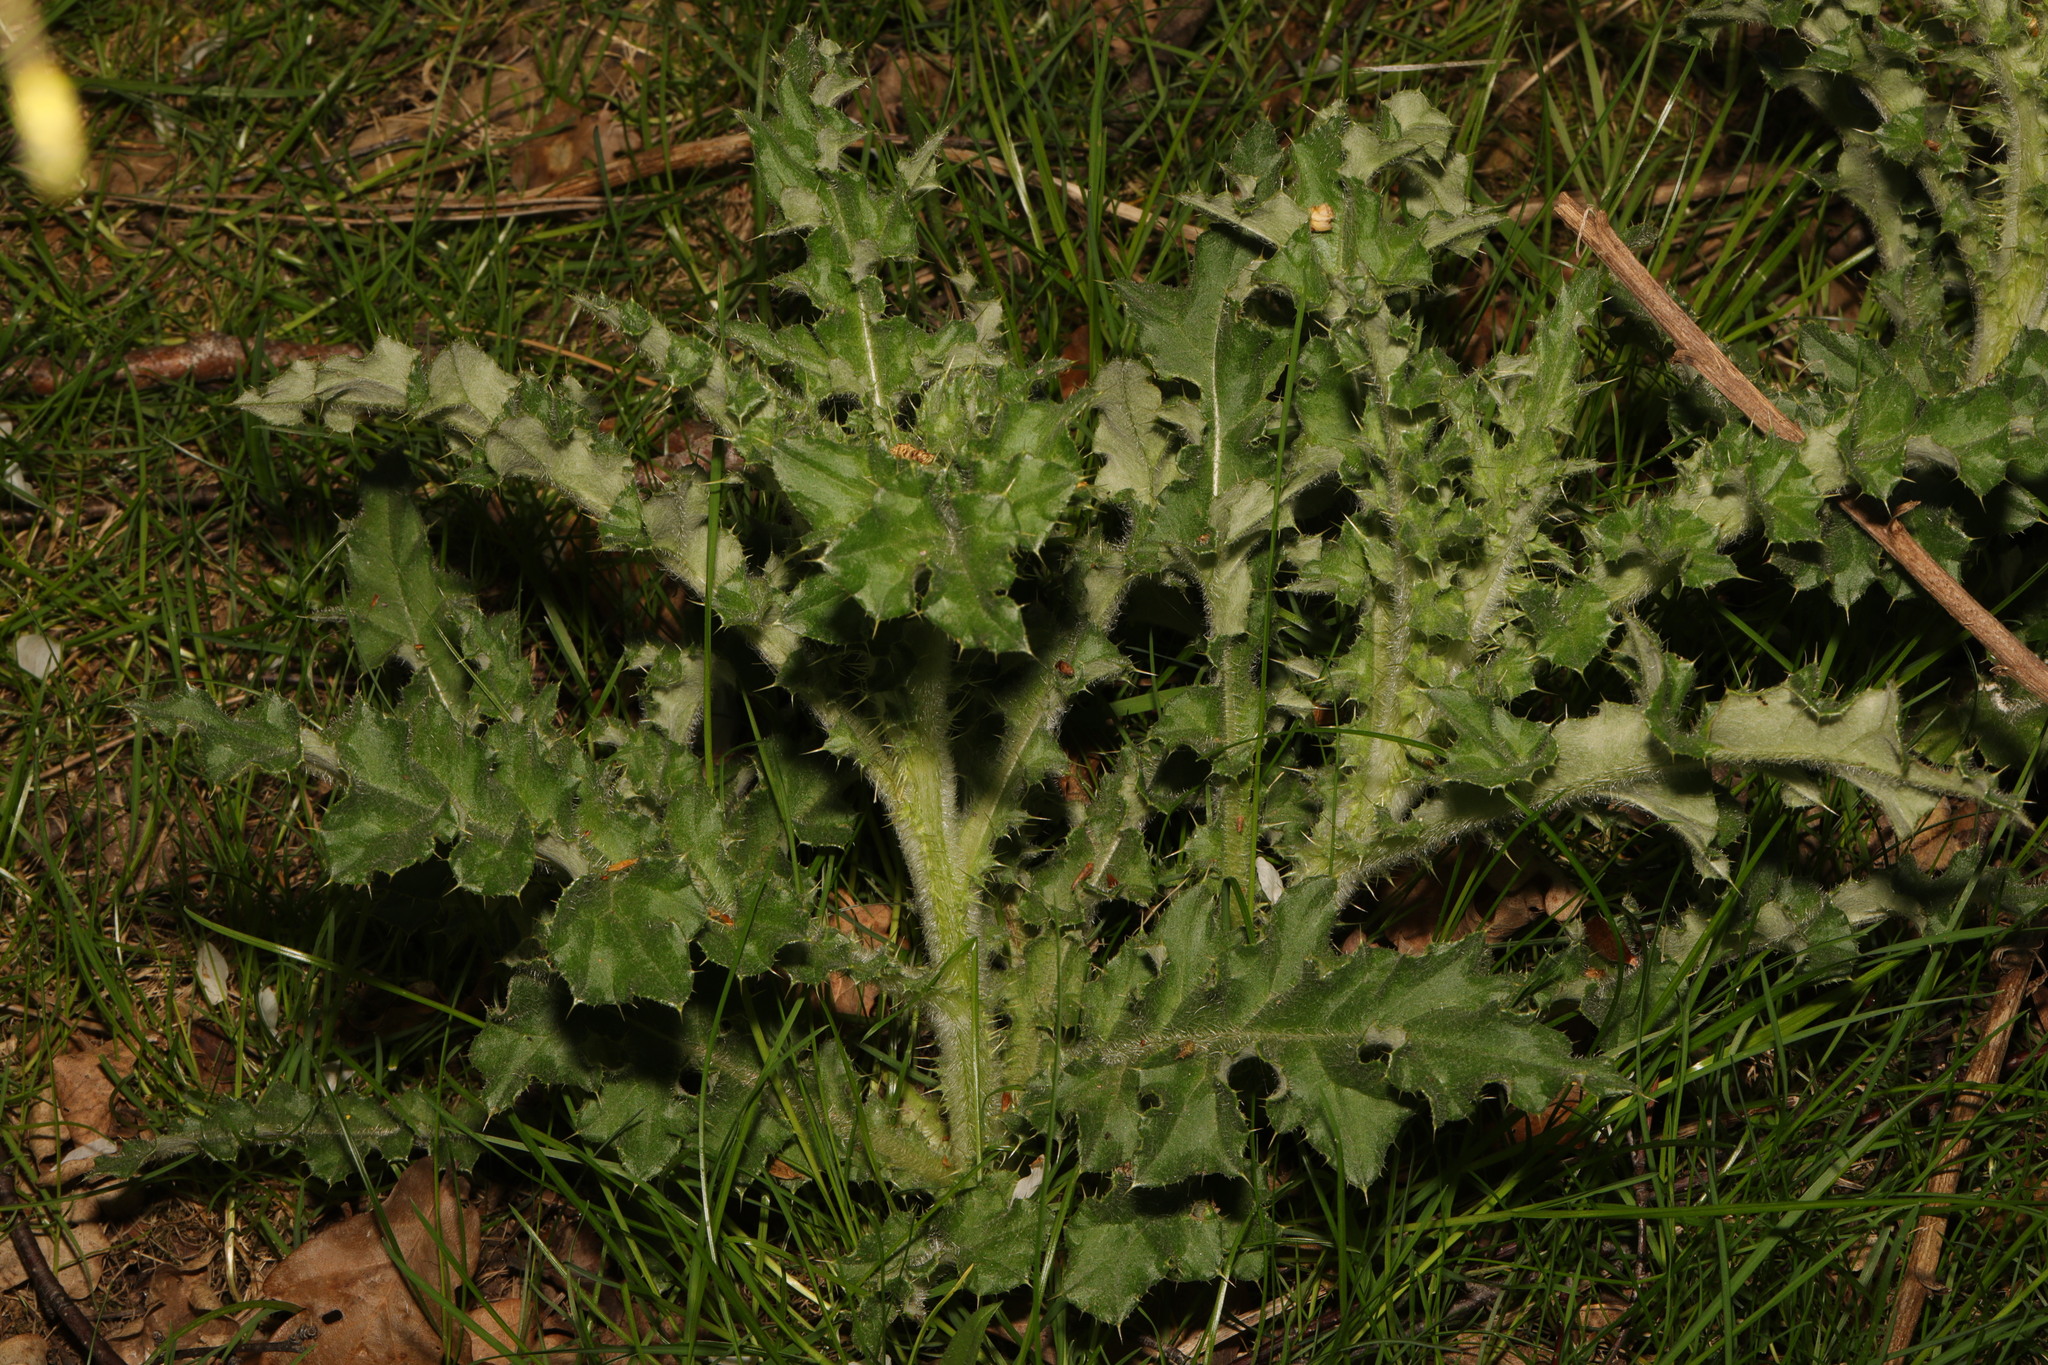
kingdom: Plantae
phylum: Tracheophyta
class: Magnoliopsida
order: Asterales
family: Asteraceae
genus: Cirsium
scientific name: Cirsium arvense
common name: Creeping thistle
